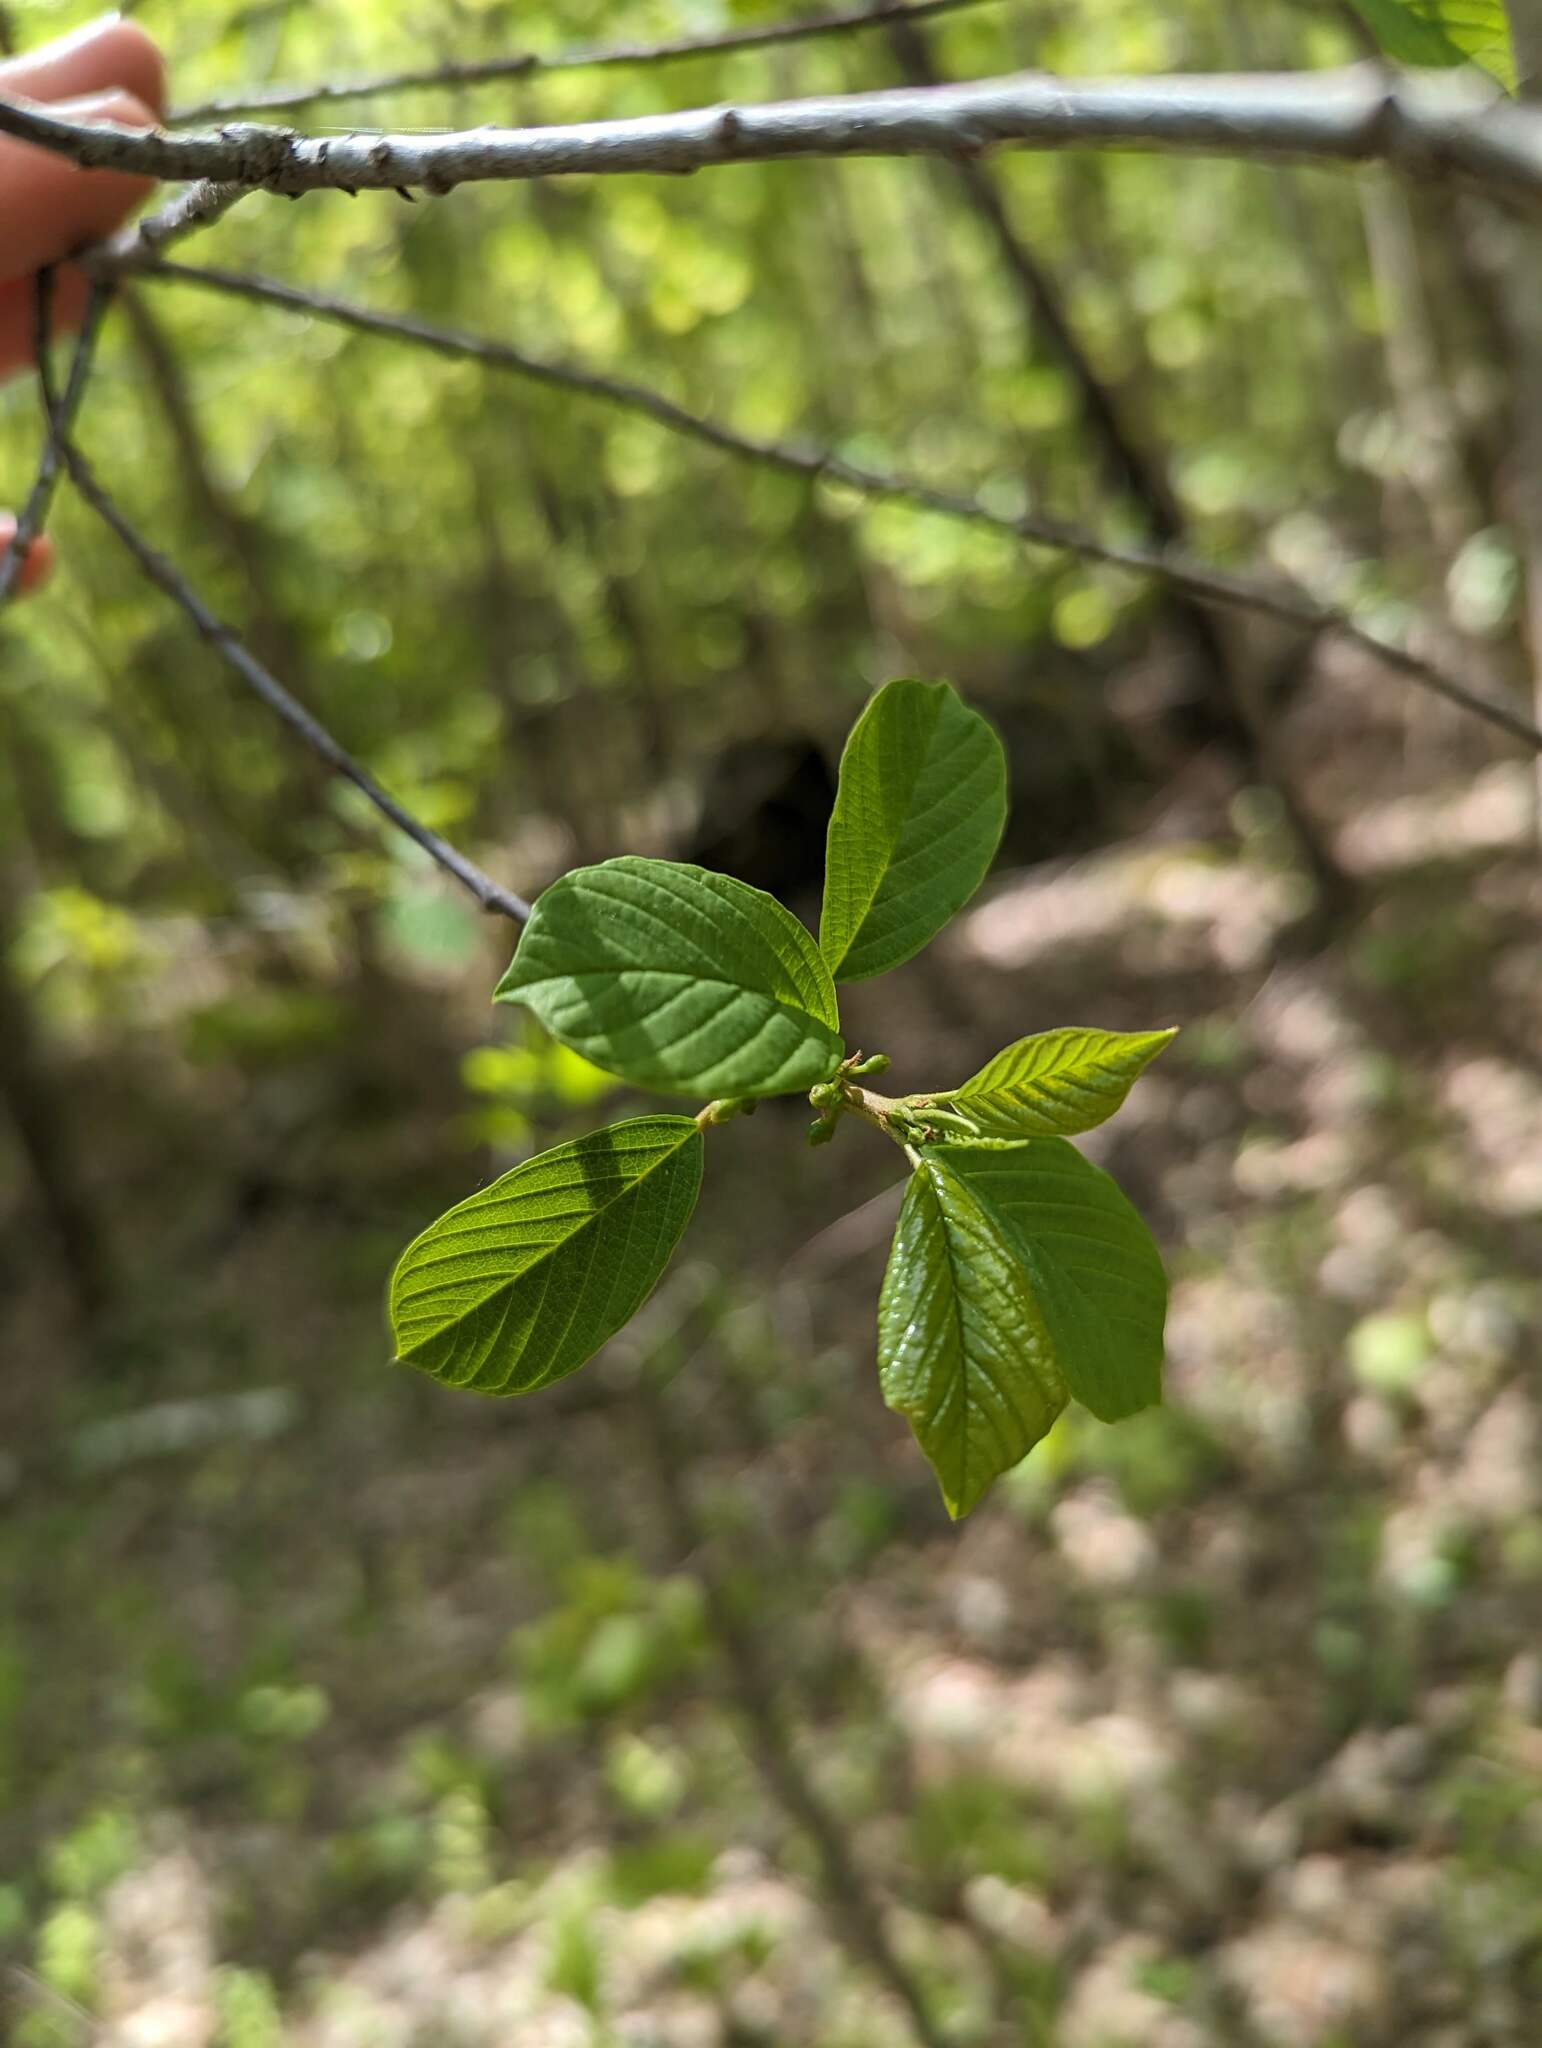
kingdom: Plantae
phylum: Tracheophyta
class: Magnoliopsida
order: Rosales
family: Rhamnaceae
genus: Frangula
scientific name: Frangula alnus
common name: Alder buckthorn
